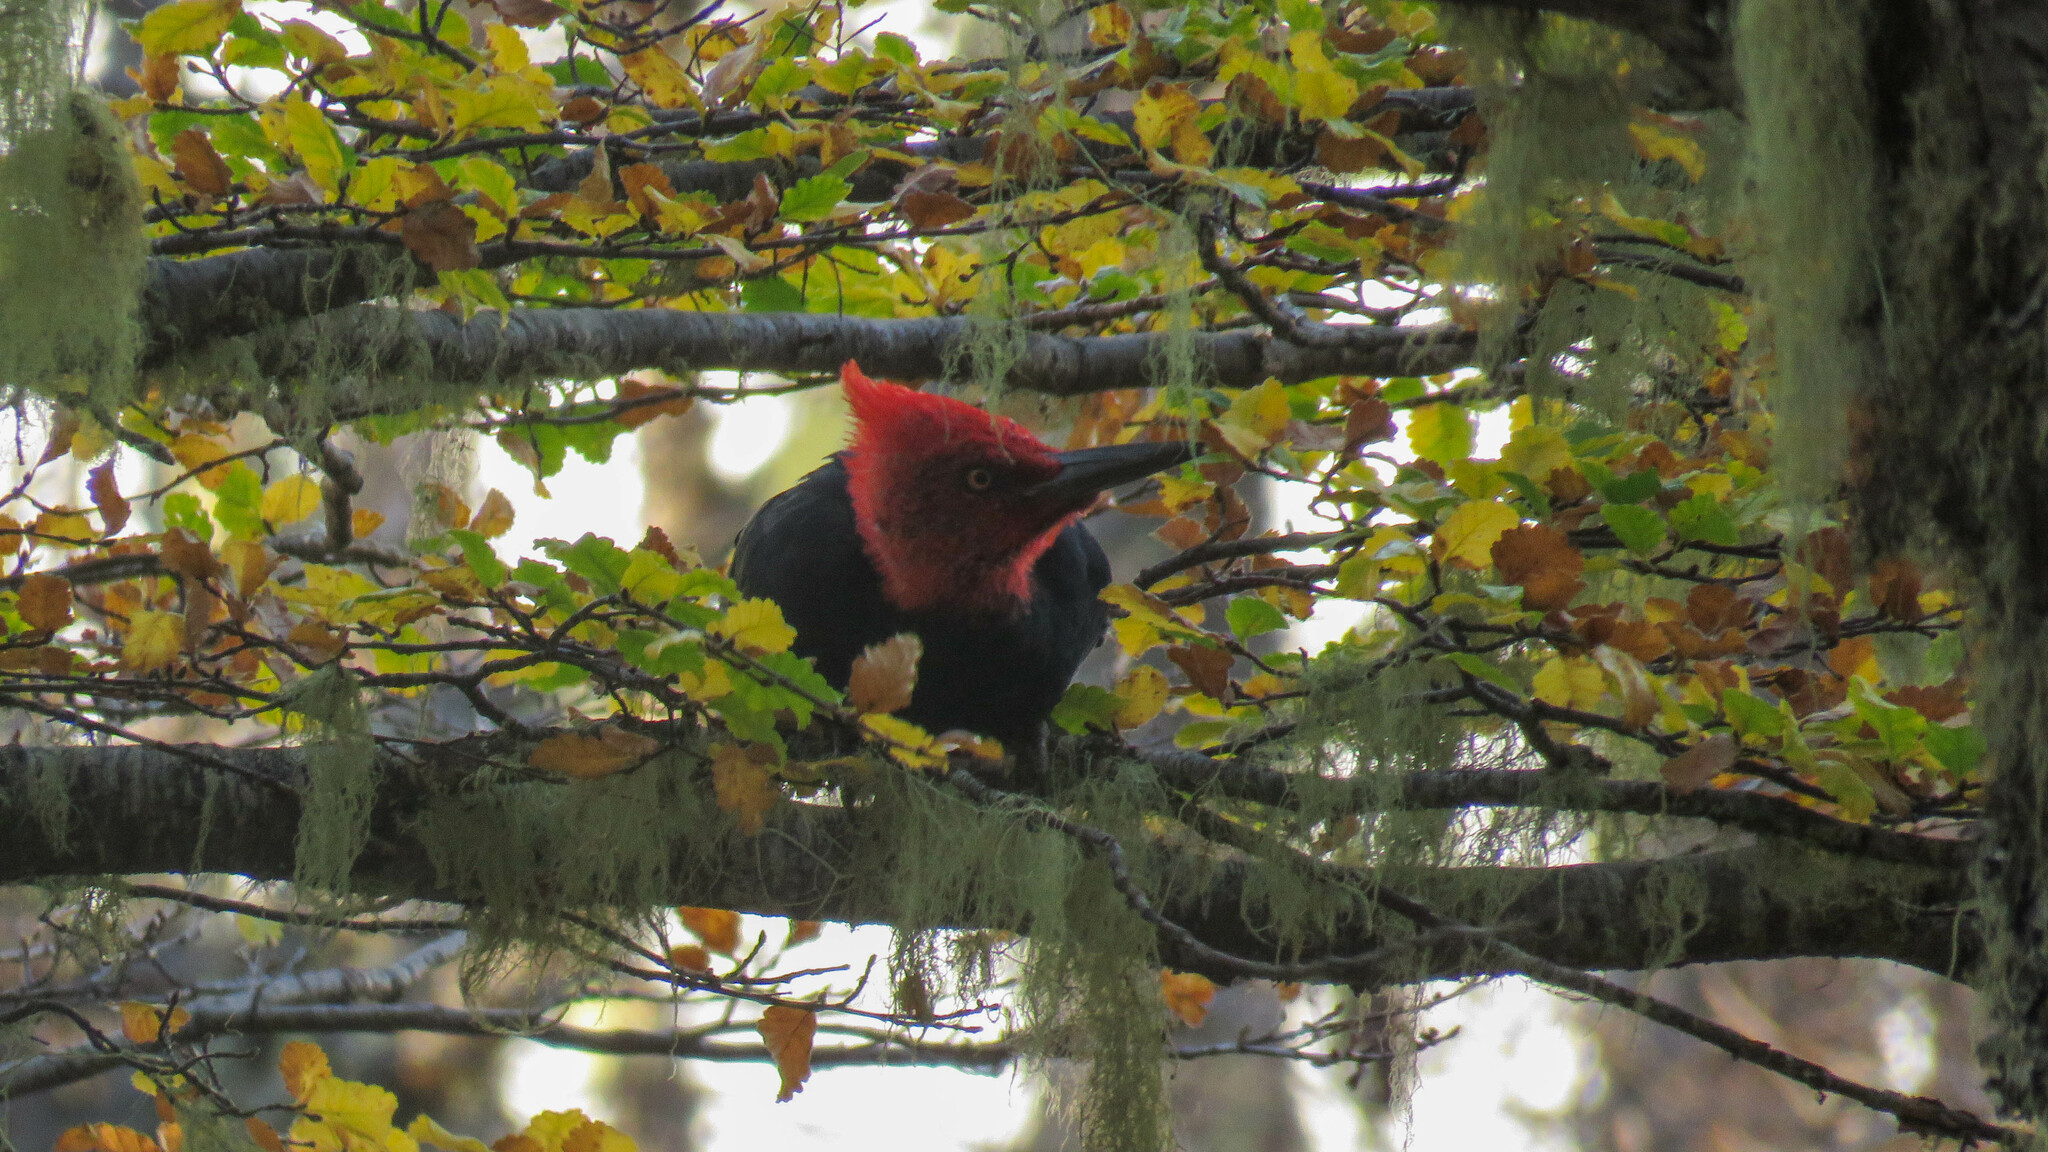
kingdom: Animalia
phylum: Chordata
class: Aves
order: Piciformes
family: Picidae
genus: Campephilus
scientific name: Campephilus magellanicus
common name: Magellanic woodpecker
